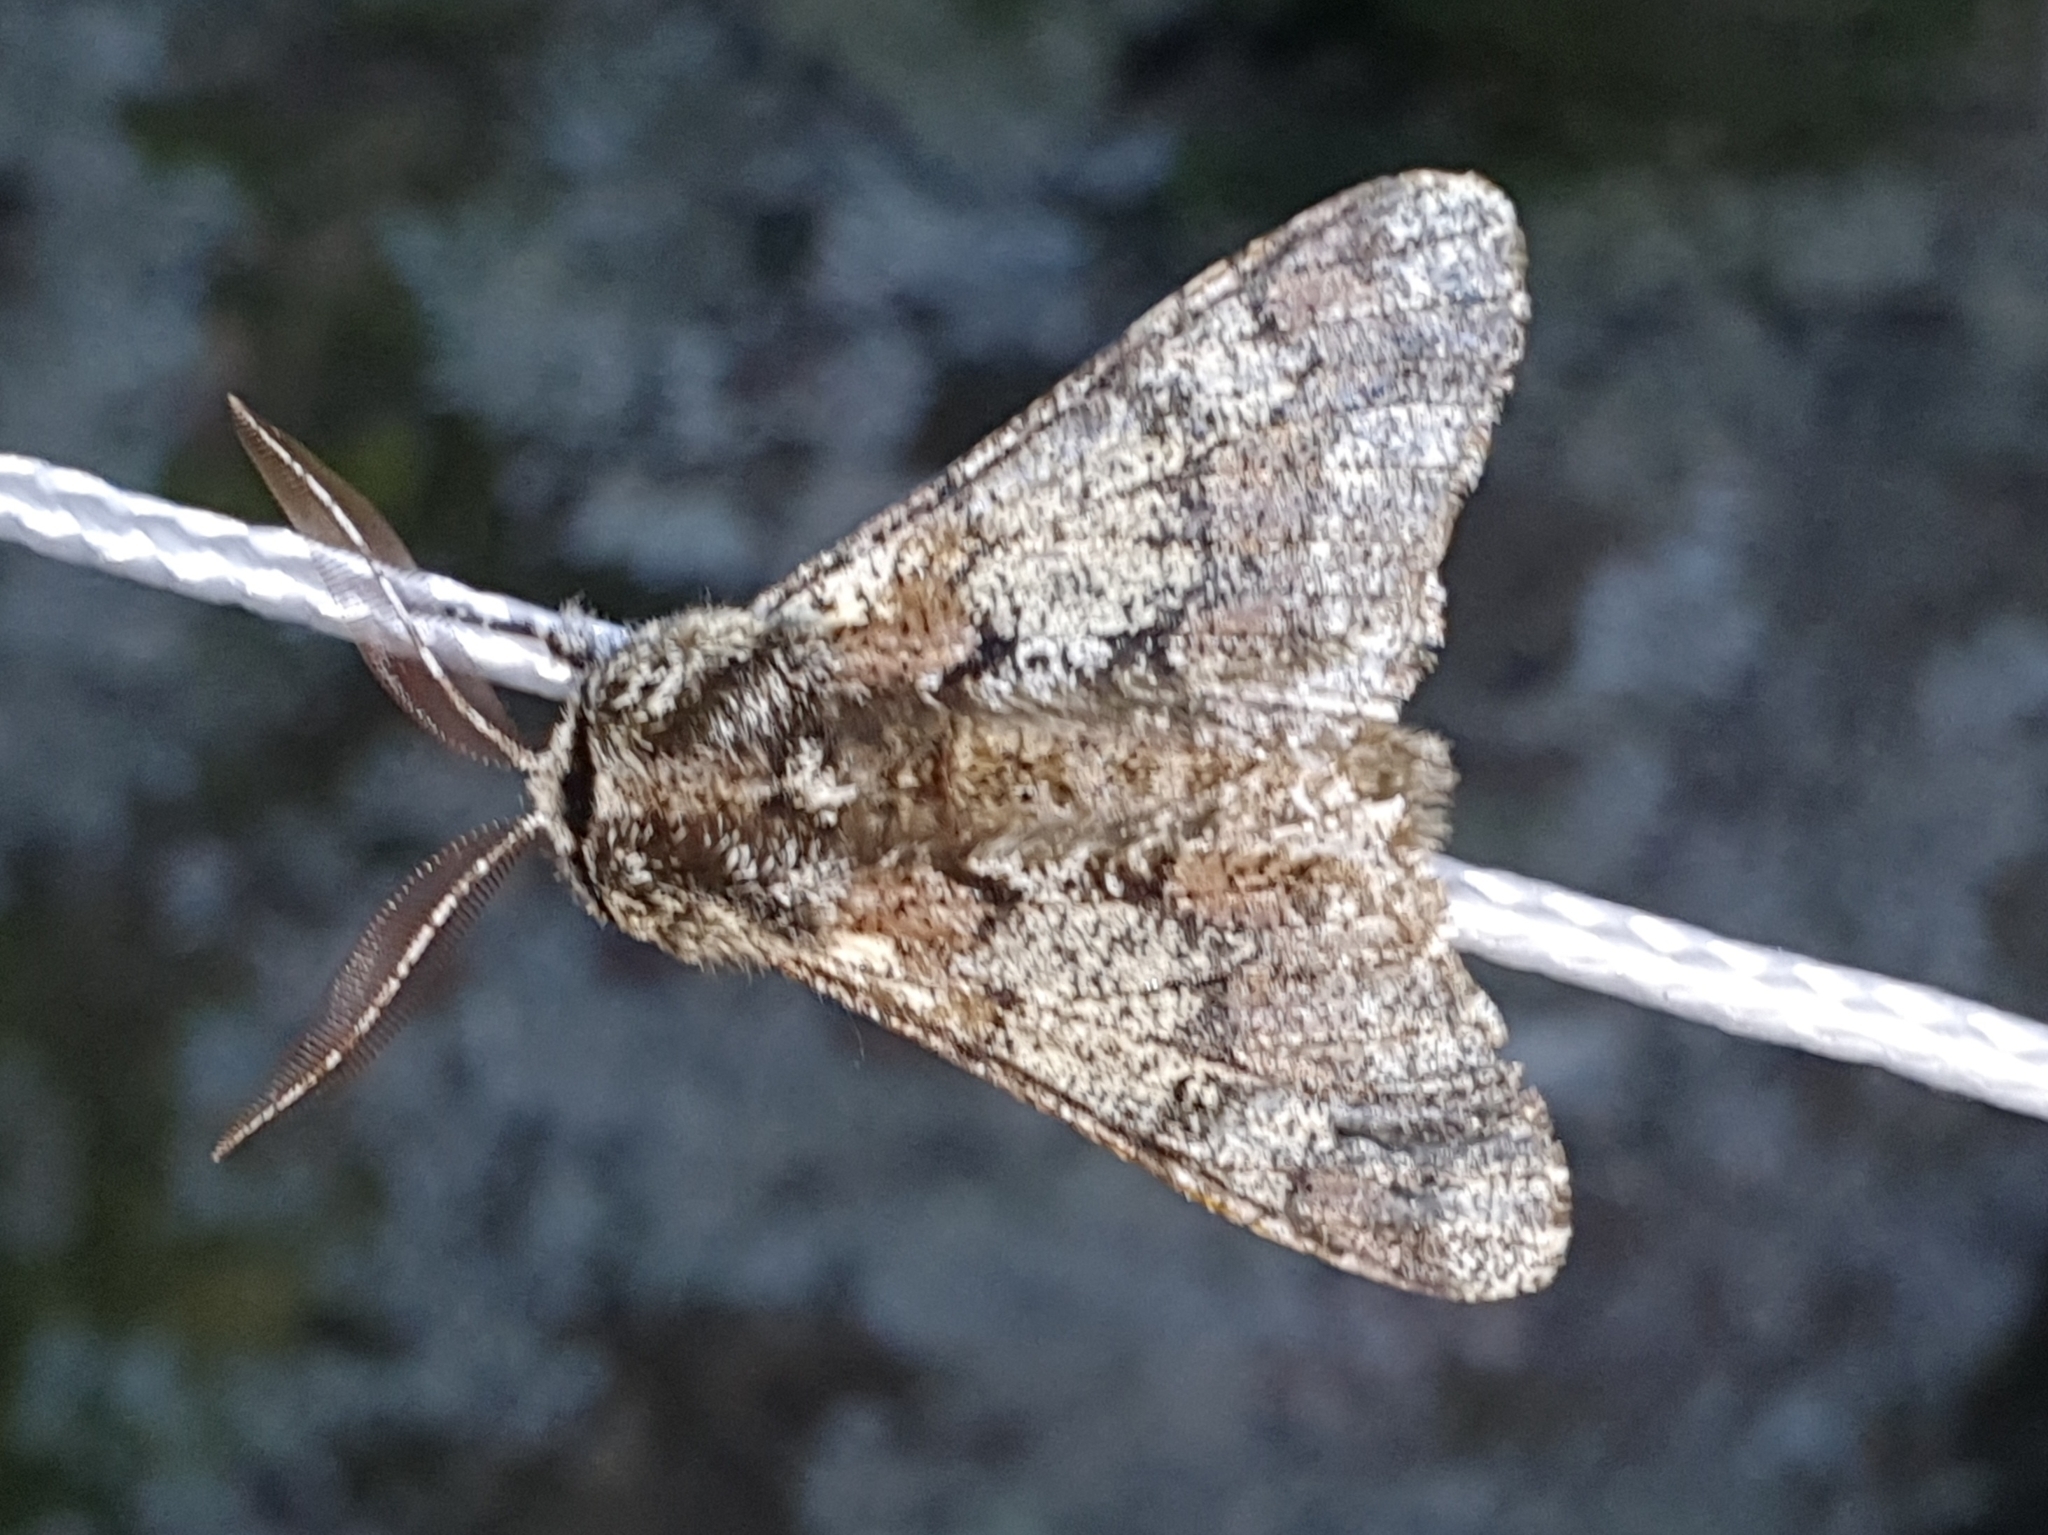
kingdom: Animalia
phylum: Arthropoda
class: Insecta
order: Lepidoptera
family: Geometridae
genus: Biston
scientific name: Biston strataria
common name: Oak beauty
